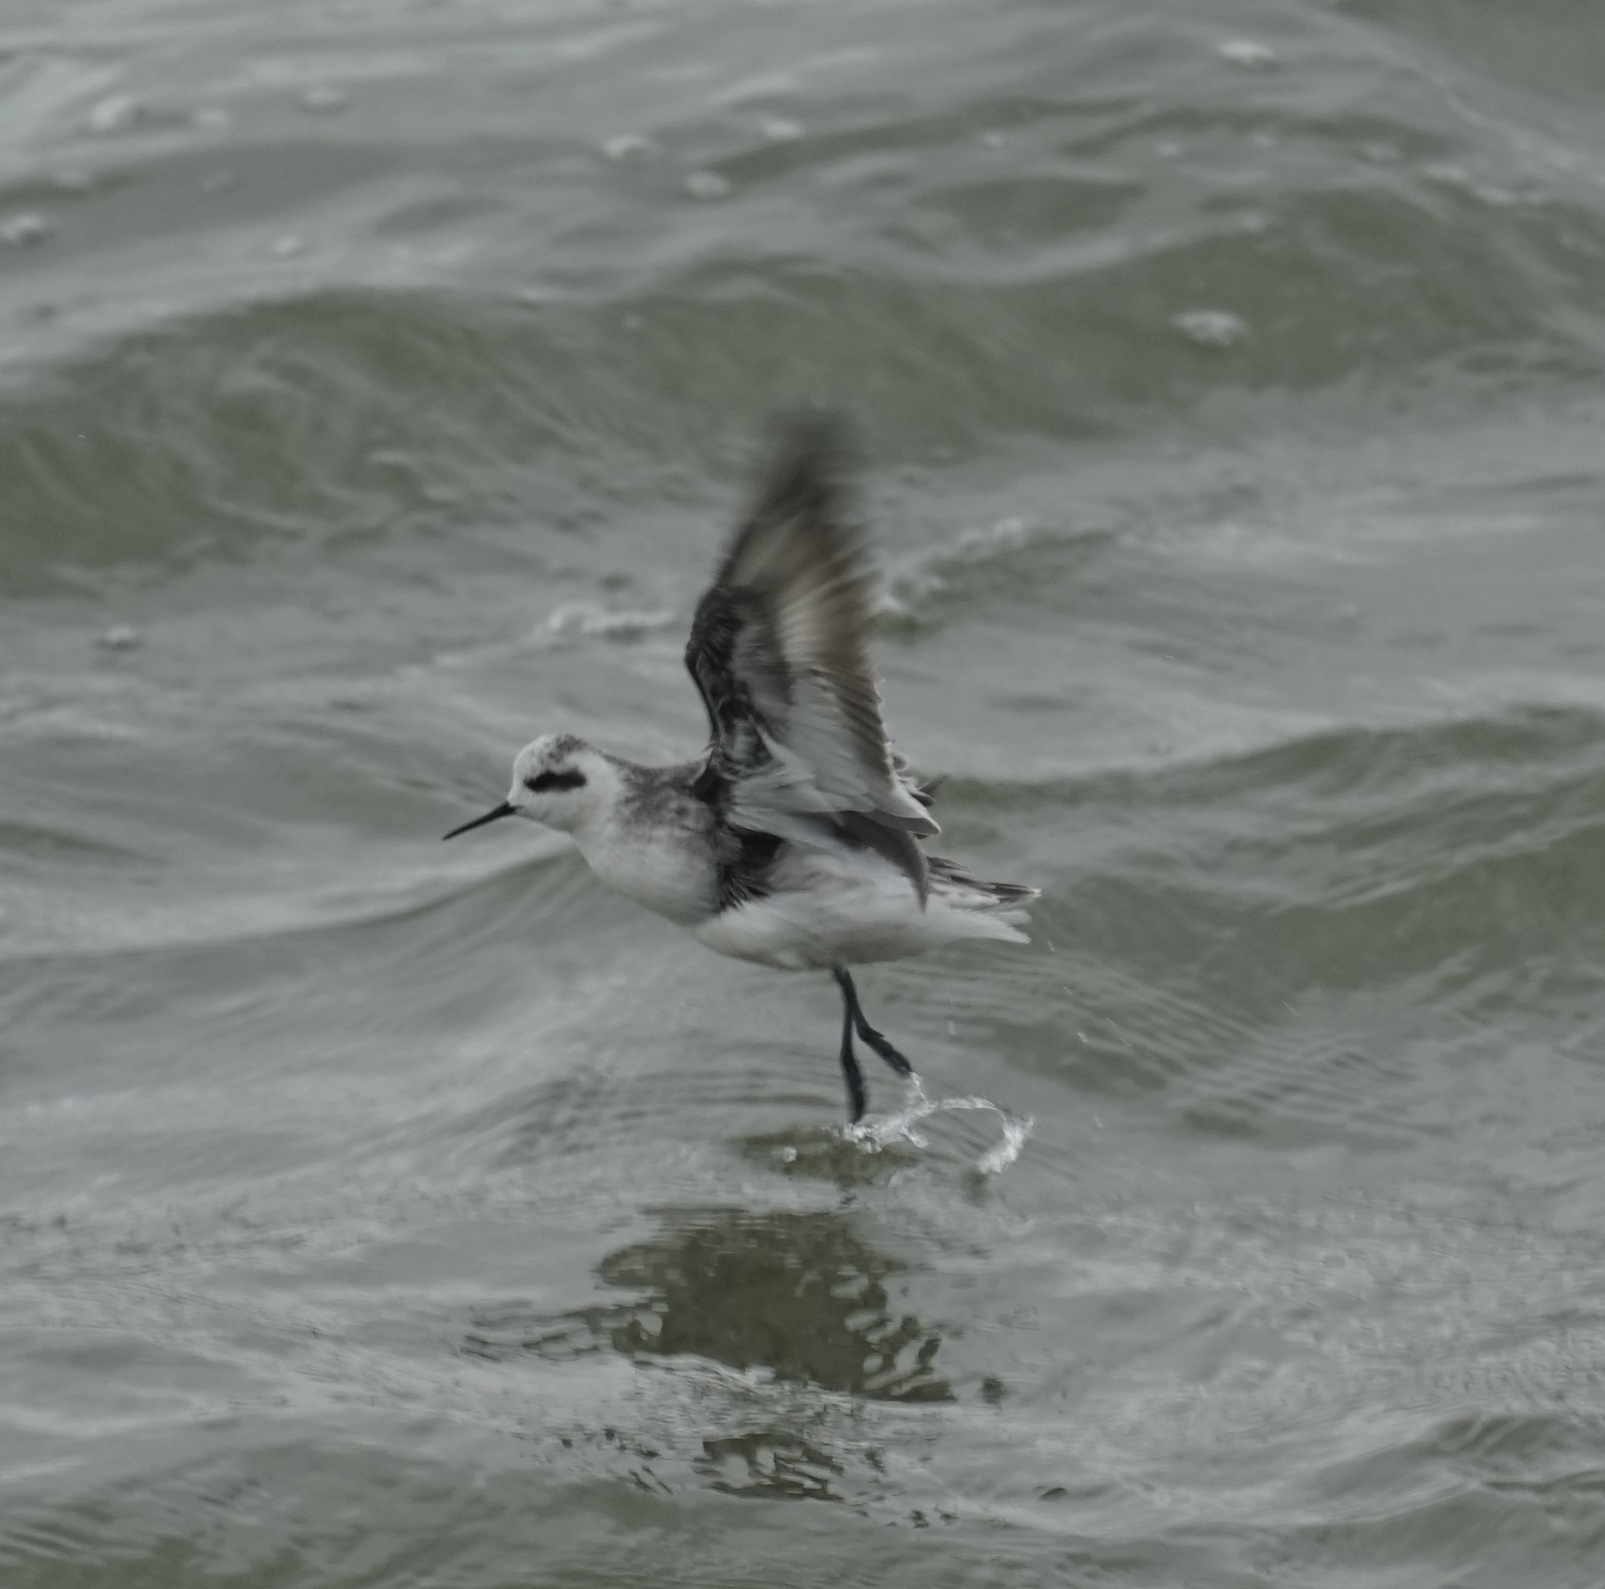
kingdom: Animalia
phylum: Chordata
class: Aves
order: Charadriiformes
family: Scolopacidae
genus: Phalaropus
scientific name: Phalaropus lobatus
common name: Red-necked phalarope
